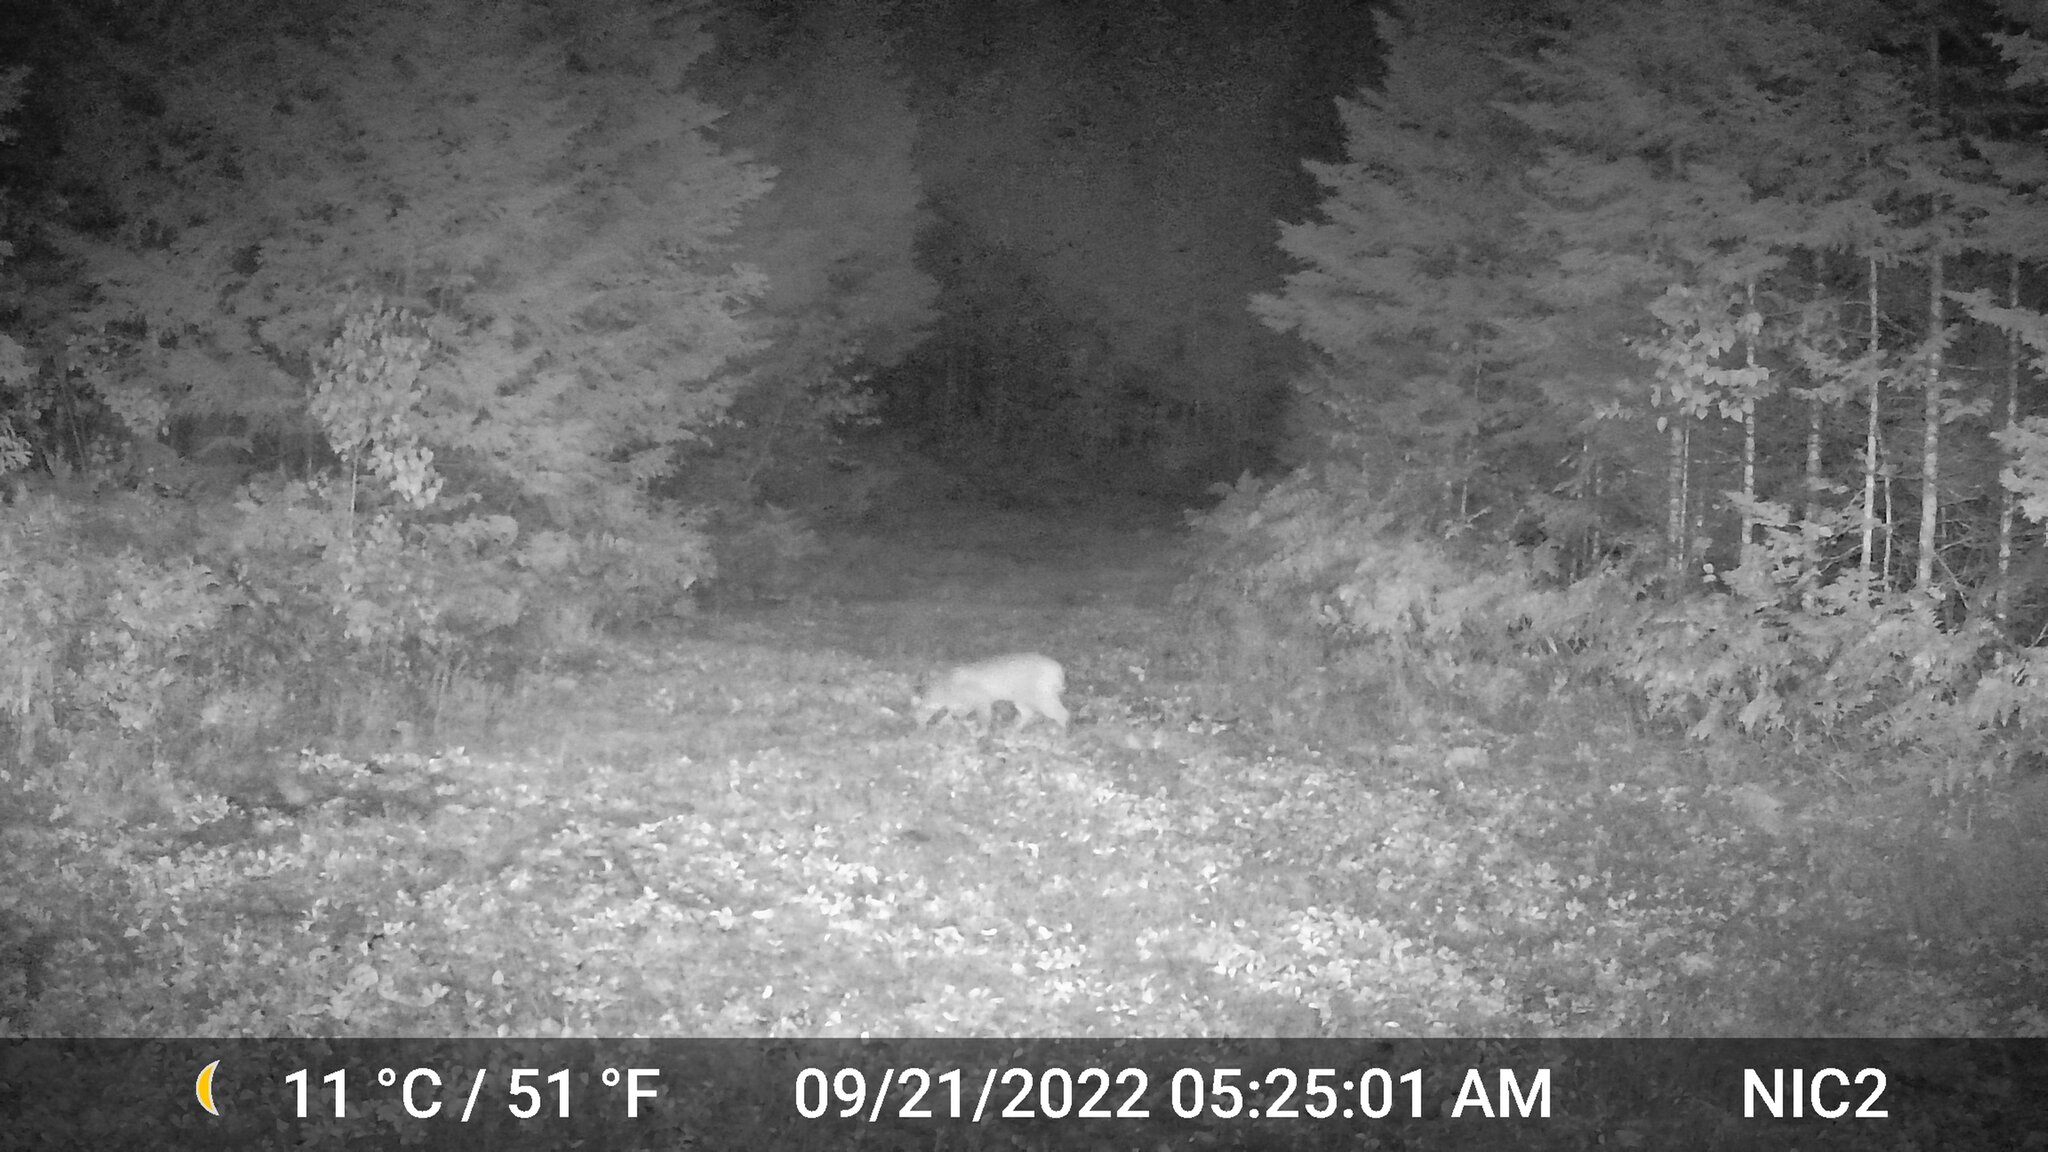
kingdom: Animalia
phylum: Chordata
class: Mammalia
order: Carnivora
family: Felidae
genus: Lynx
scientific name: Lynx rufus
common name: Bobcat
